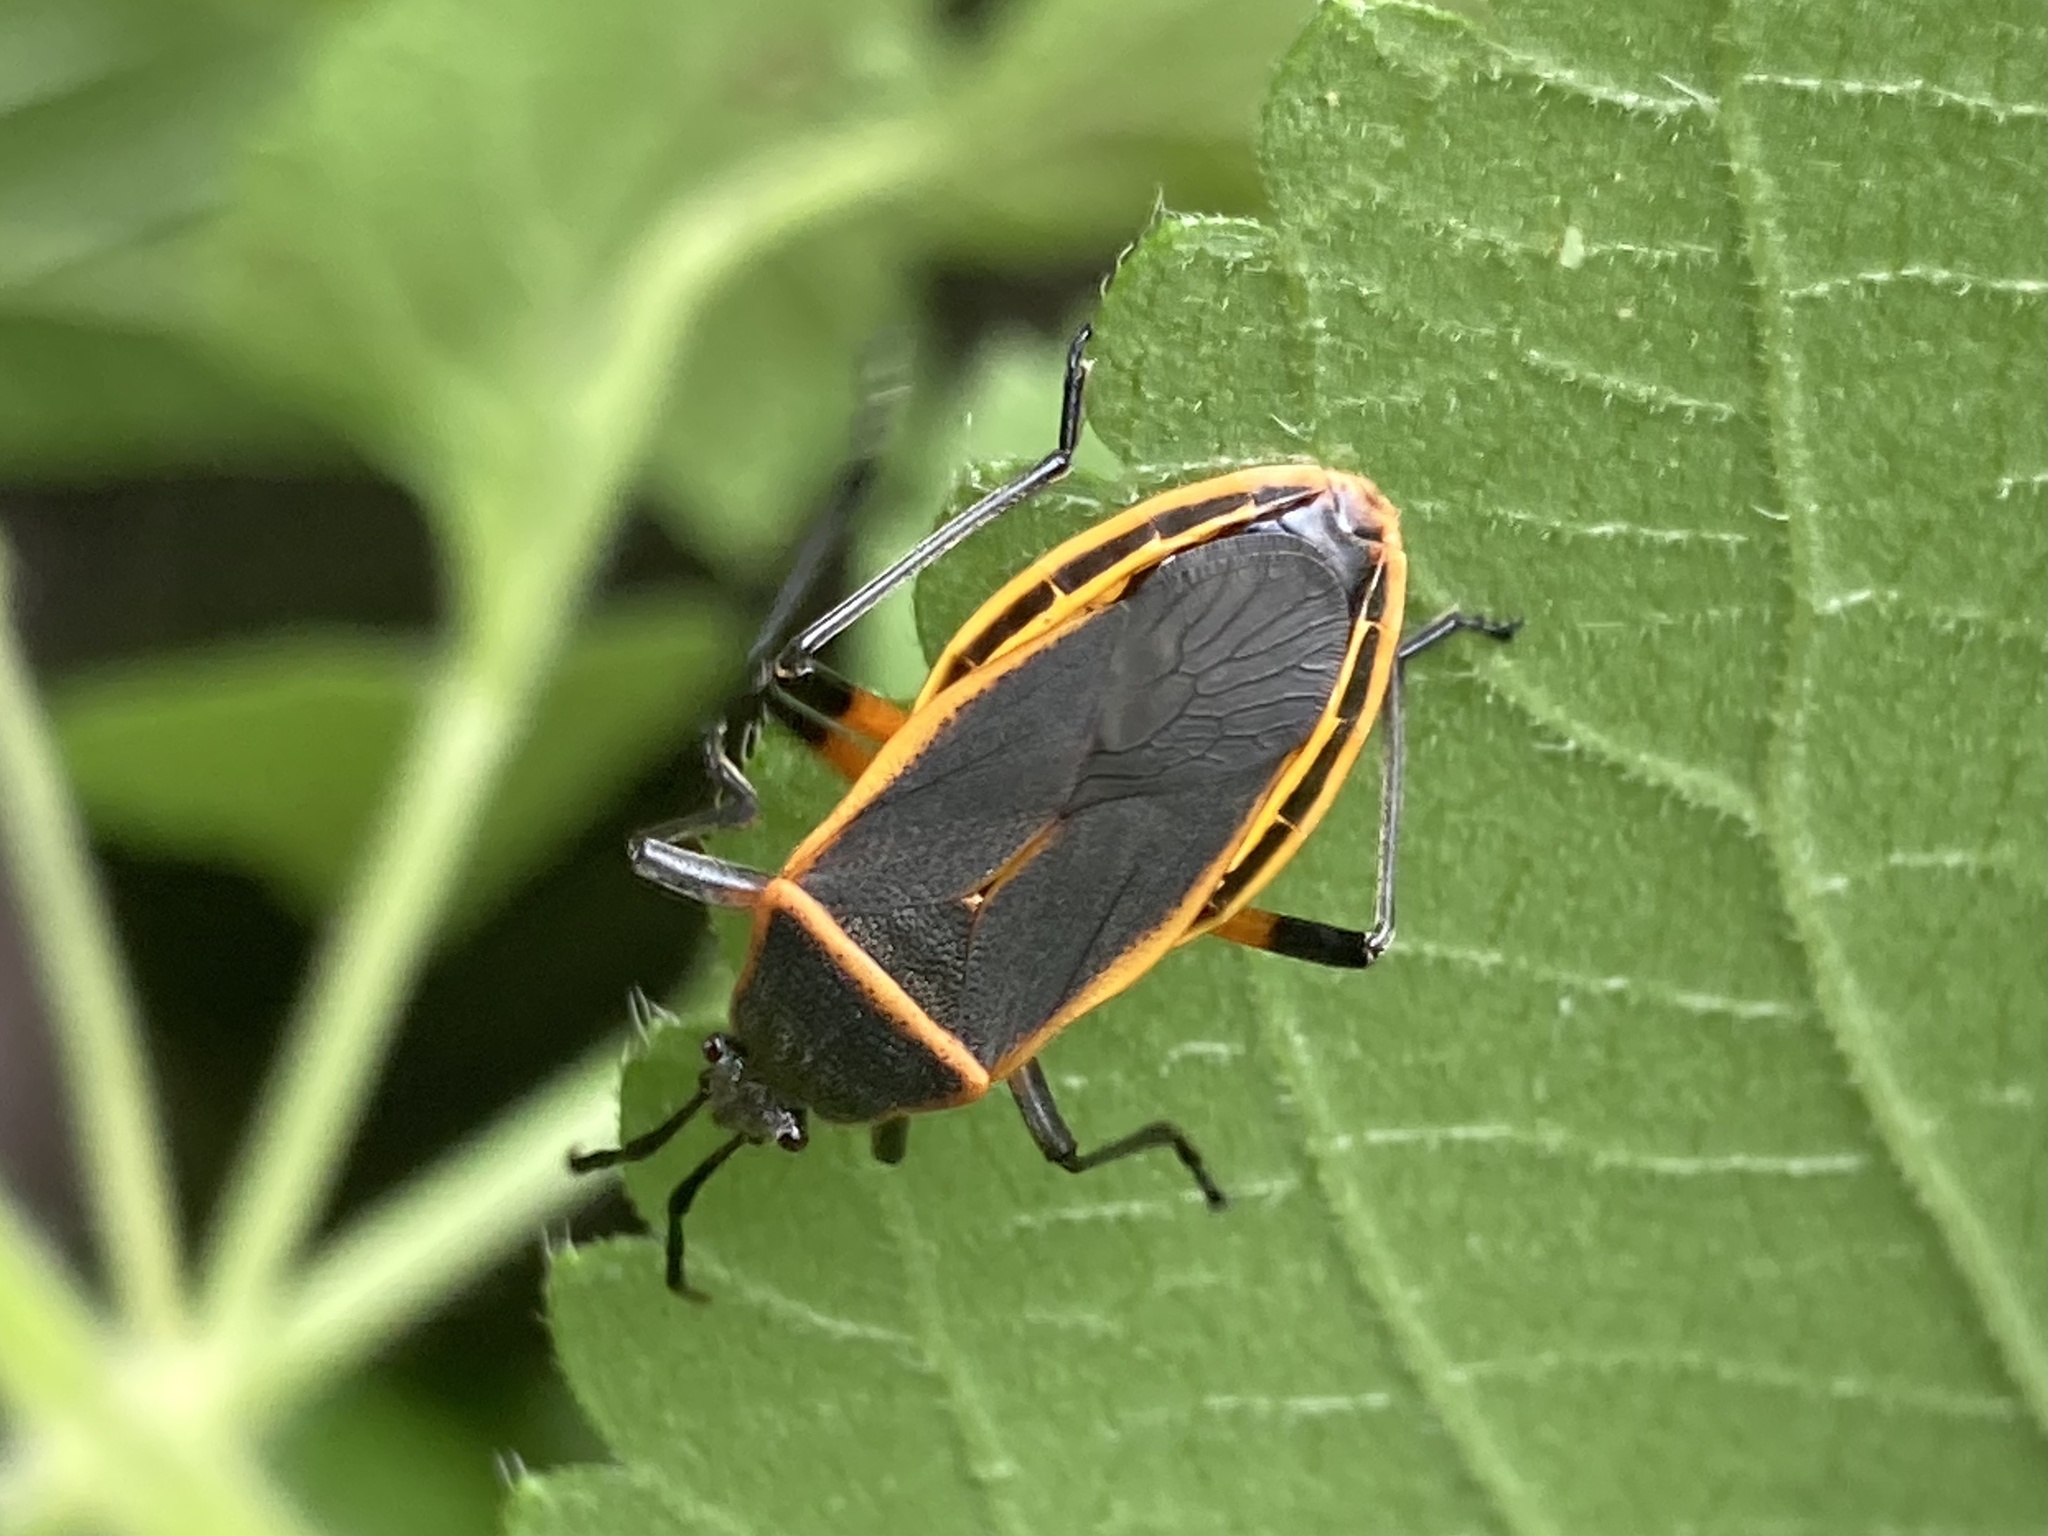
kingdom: Animalia
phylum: Arthropoda
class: Insecta
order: Hemiptera
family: Largidae
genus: Largus
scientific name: Largus succinctus
